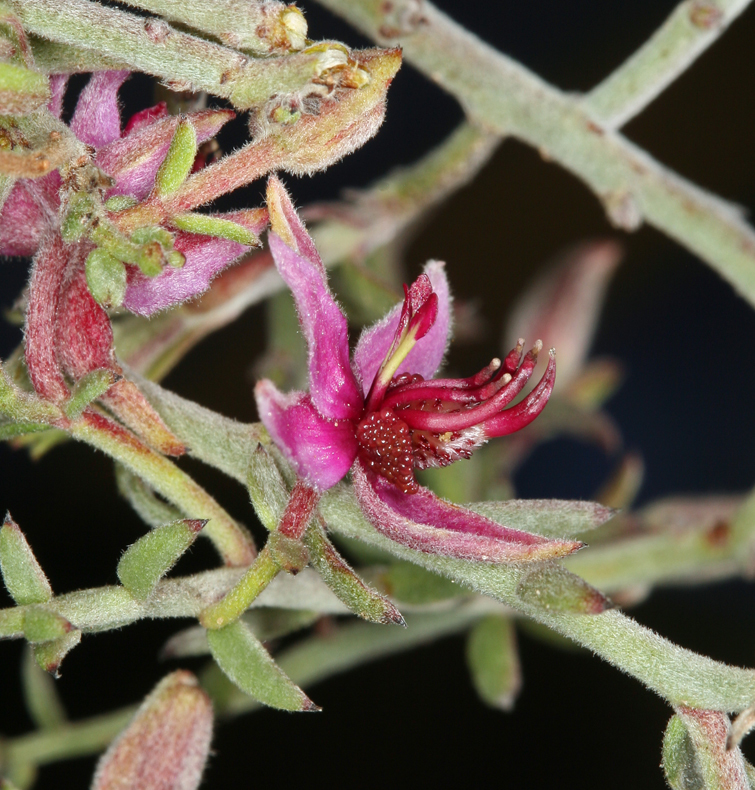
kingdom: Plantae
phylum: Tracheophyta
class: Magnoliopsida
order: Zygophyllales
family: Krameriaceae
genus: Krameria
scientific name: Krameria bicolor
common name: White ratany
